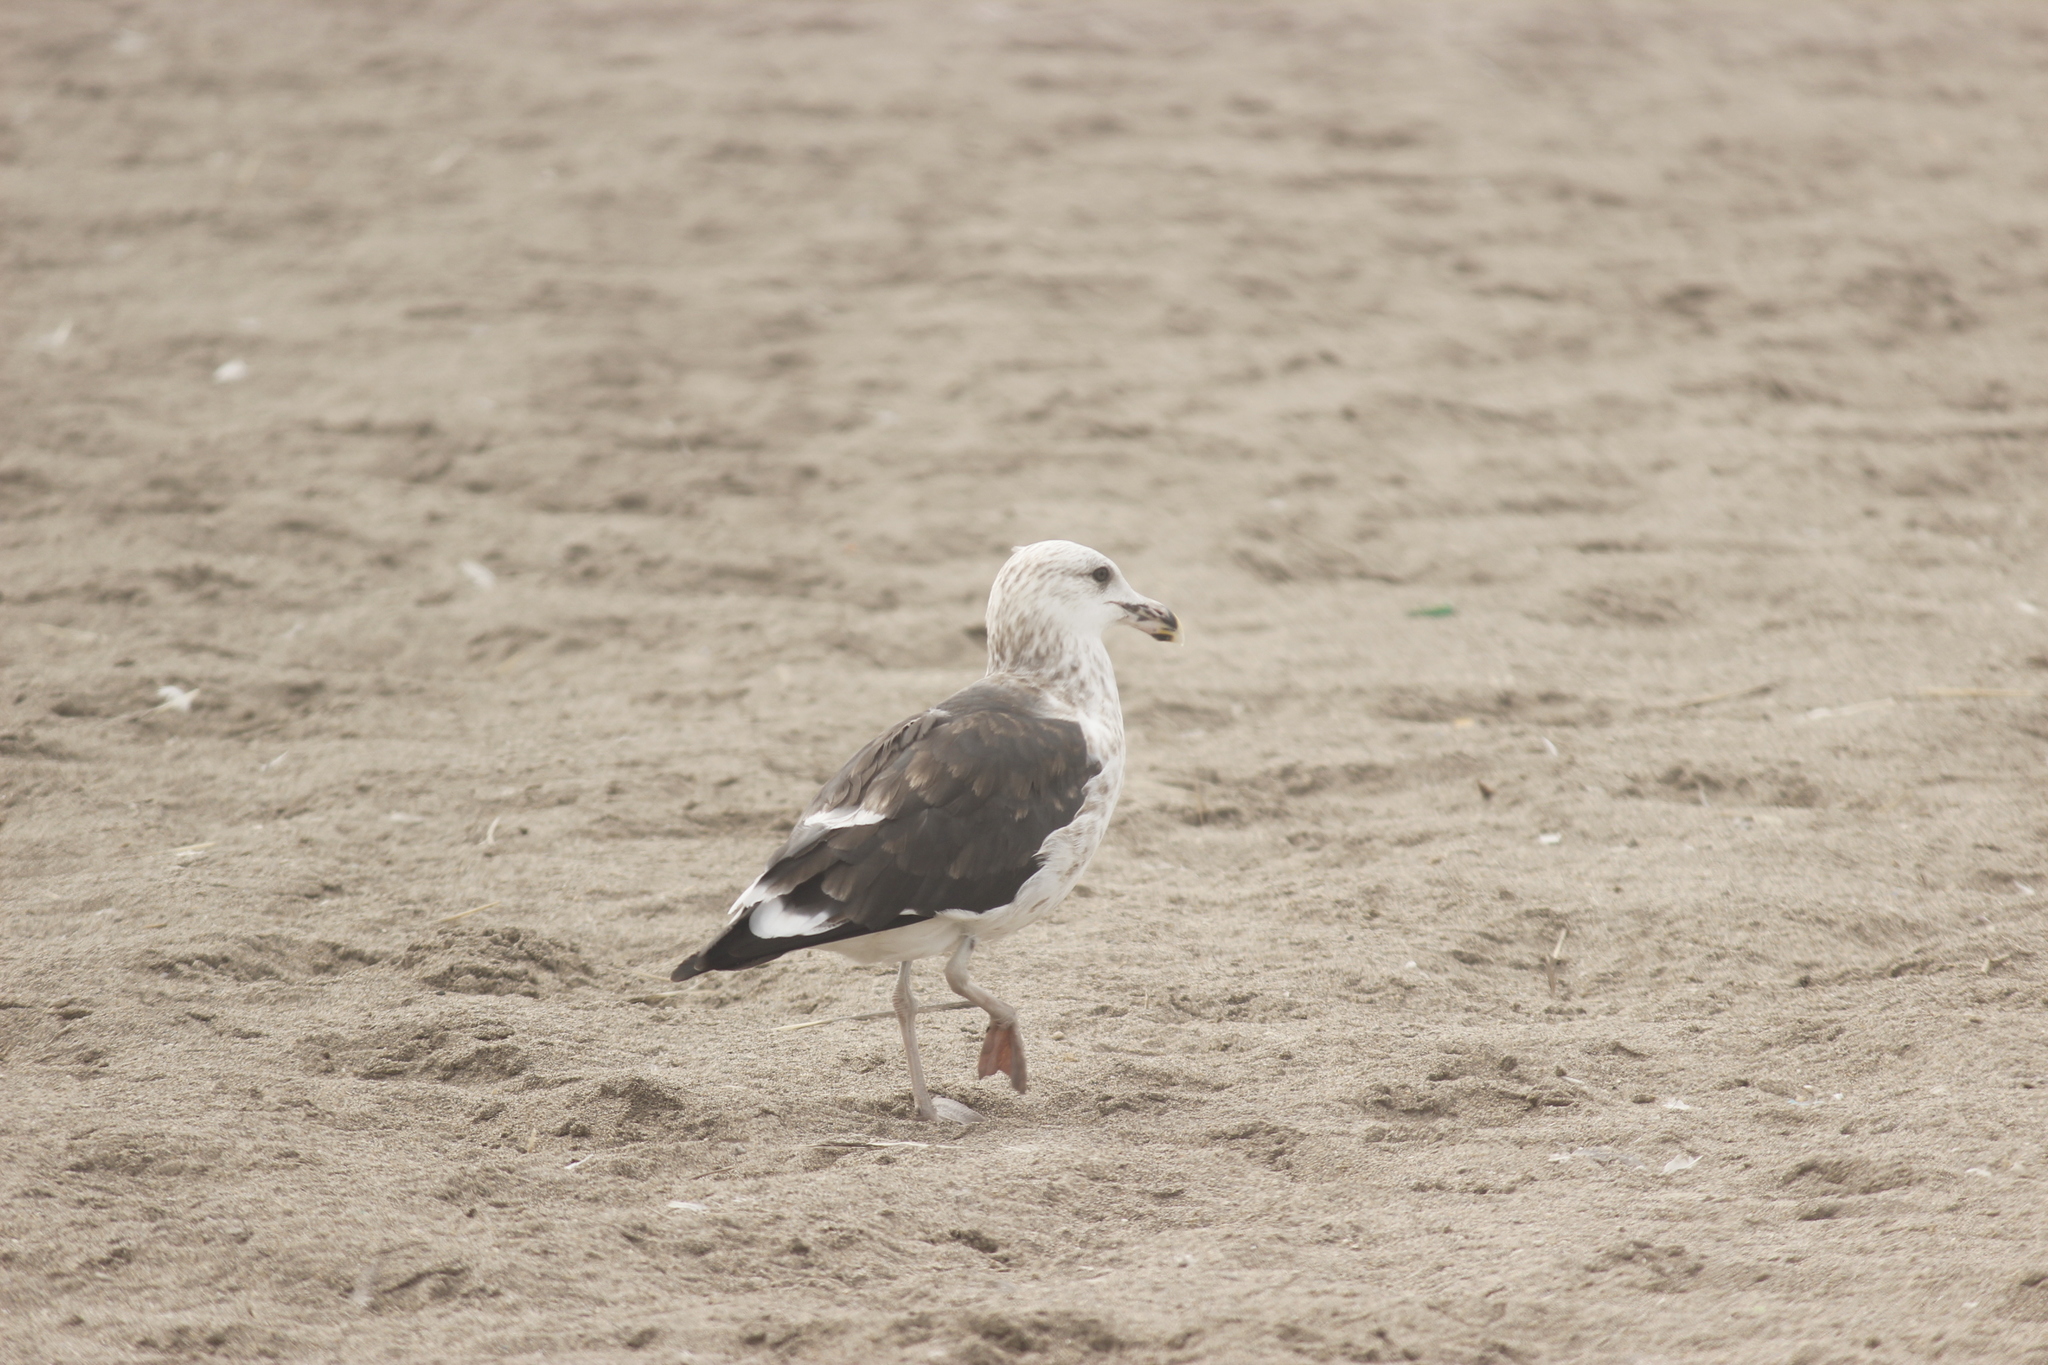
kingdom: Animalia
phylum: Chordata
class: Aves
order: Charadriiformes
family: Laridae
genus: Larus
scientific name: Larus belcheri
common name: Belcher's gull
